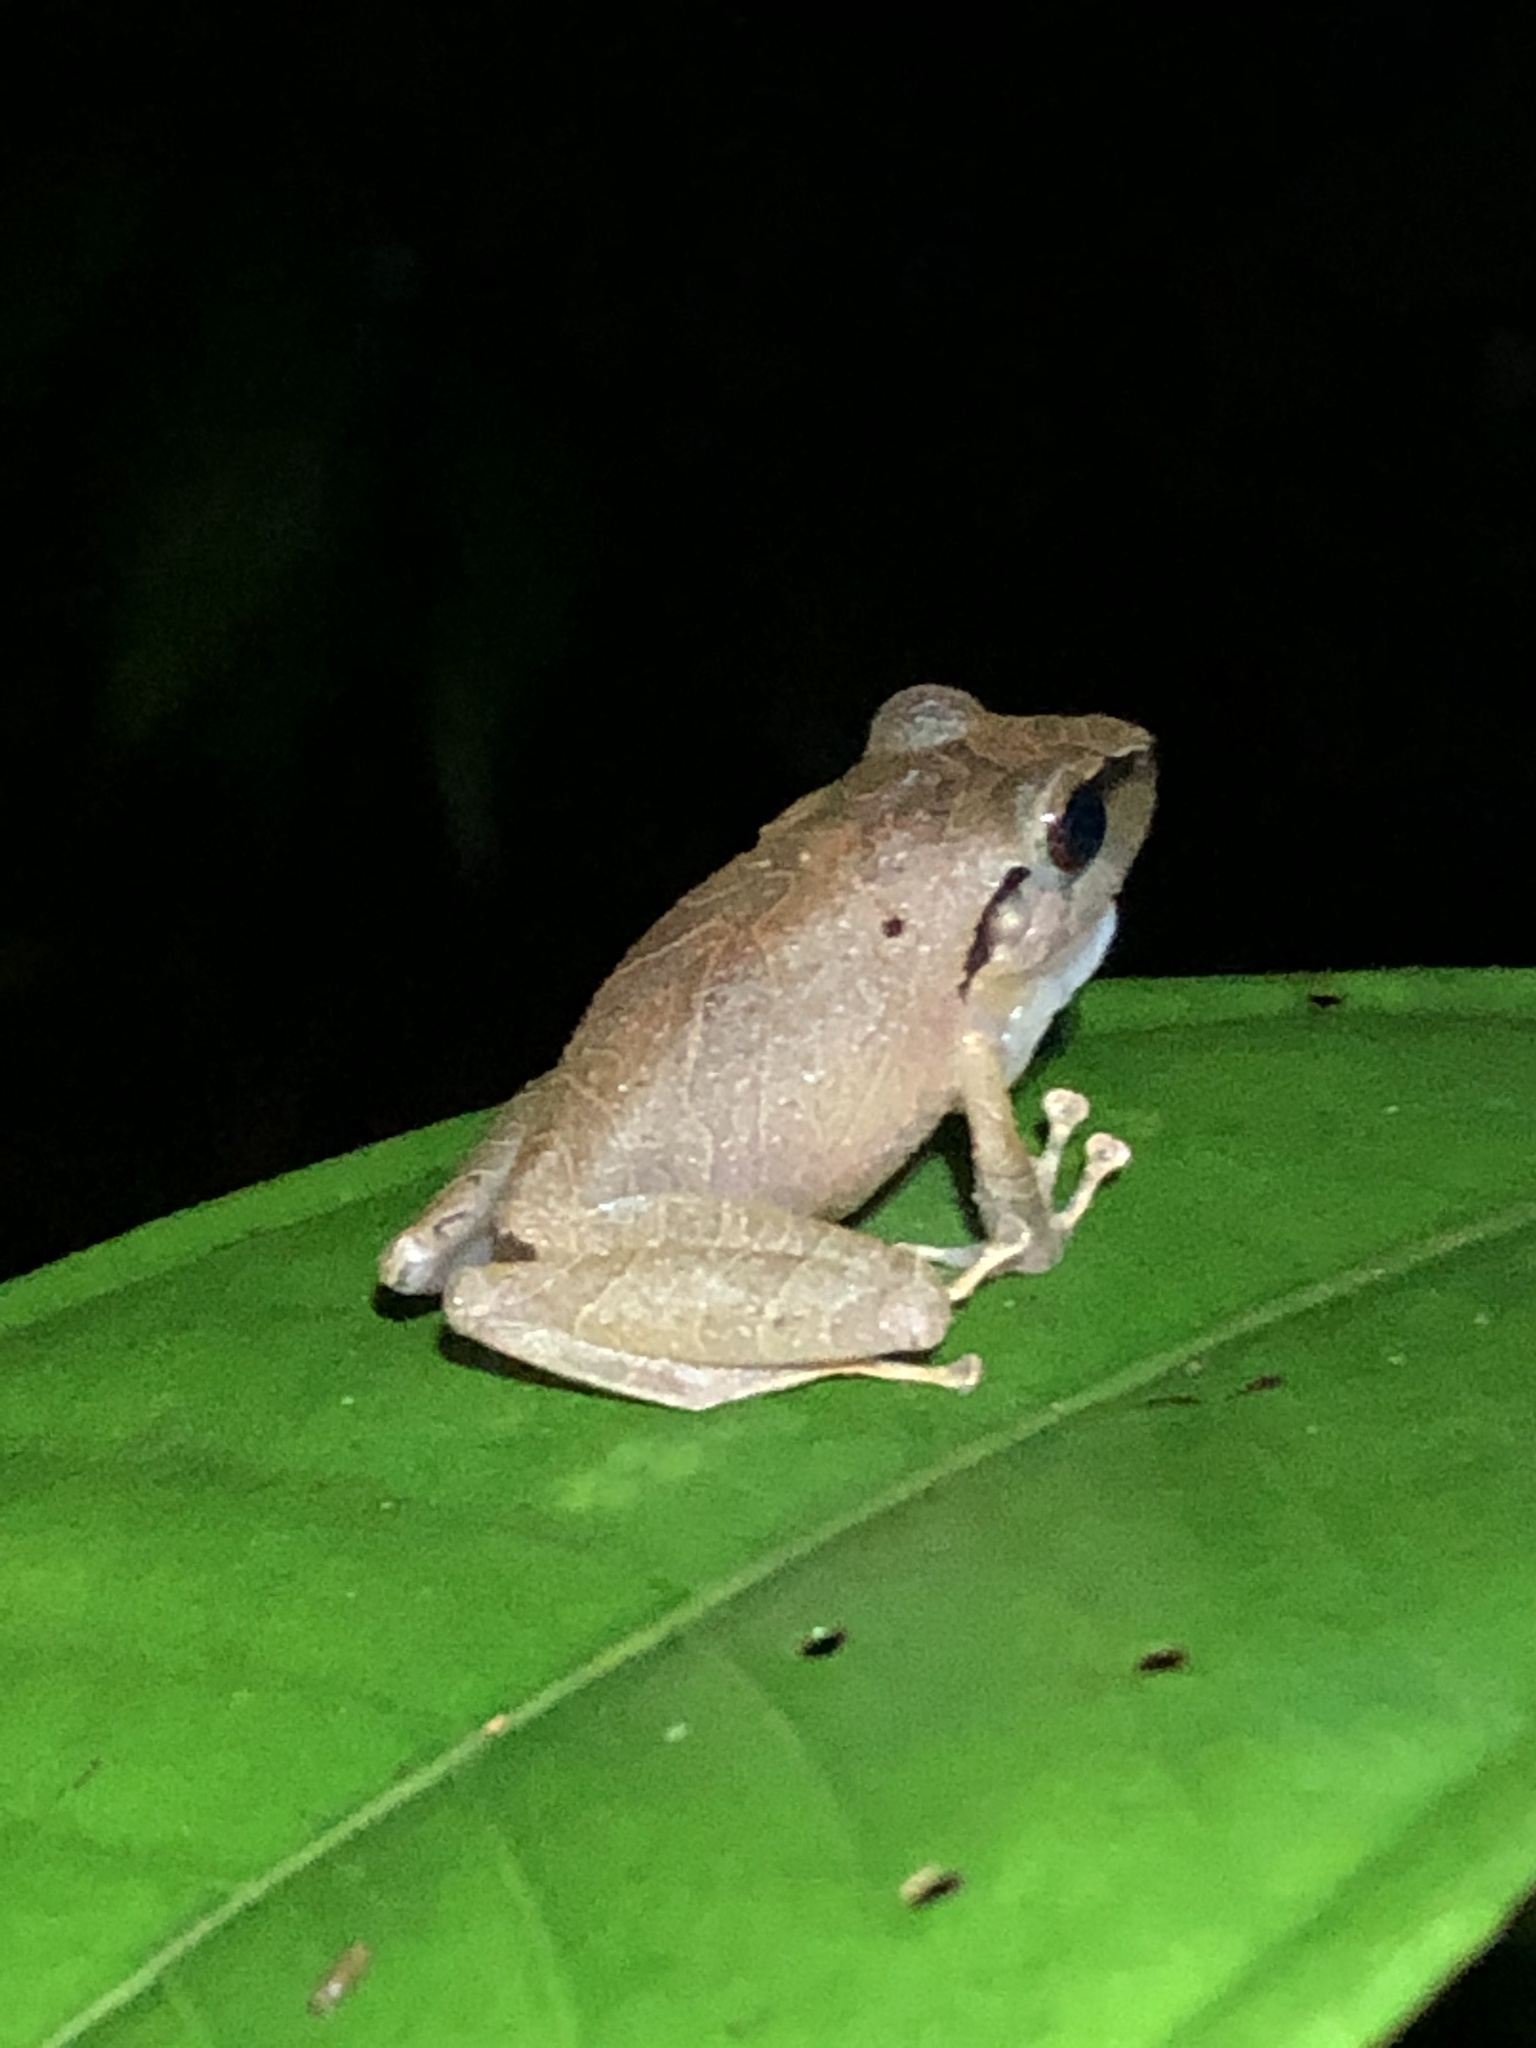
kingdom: Animalia
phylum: Chordata
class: Amphibia
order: Anura
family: Craugastoridae
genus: Pristimantis
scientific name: Pristimantis reichlei
